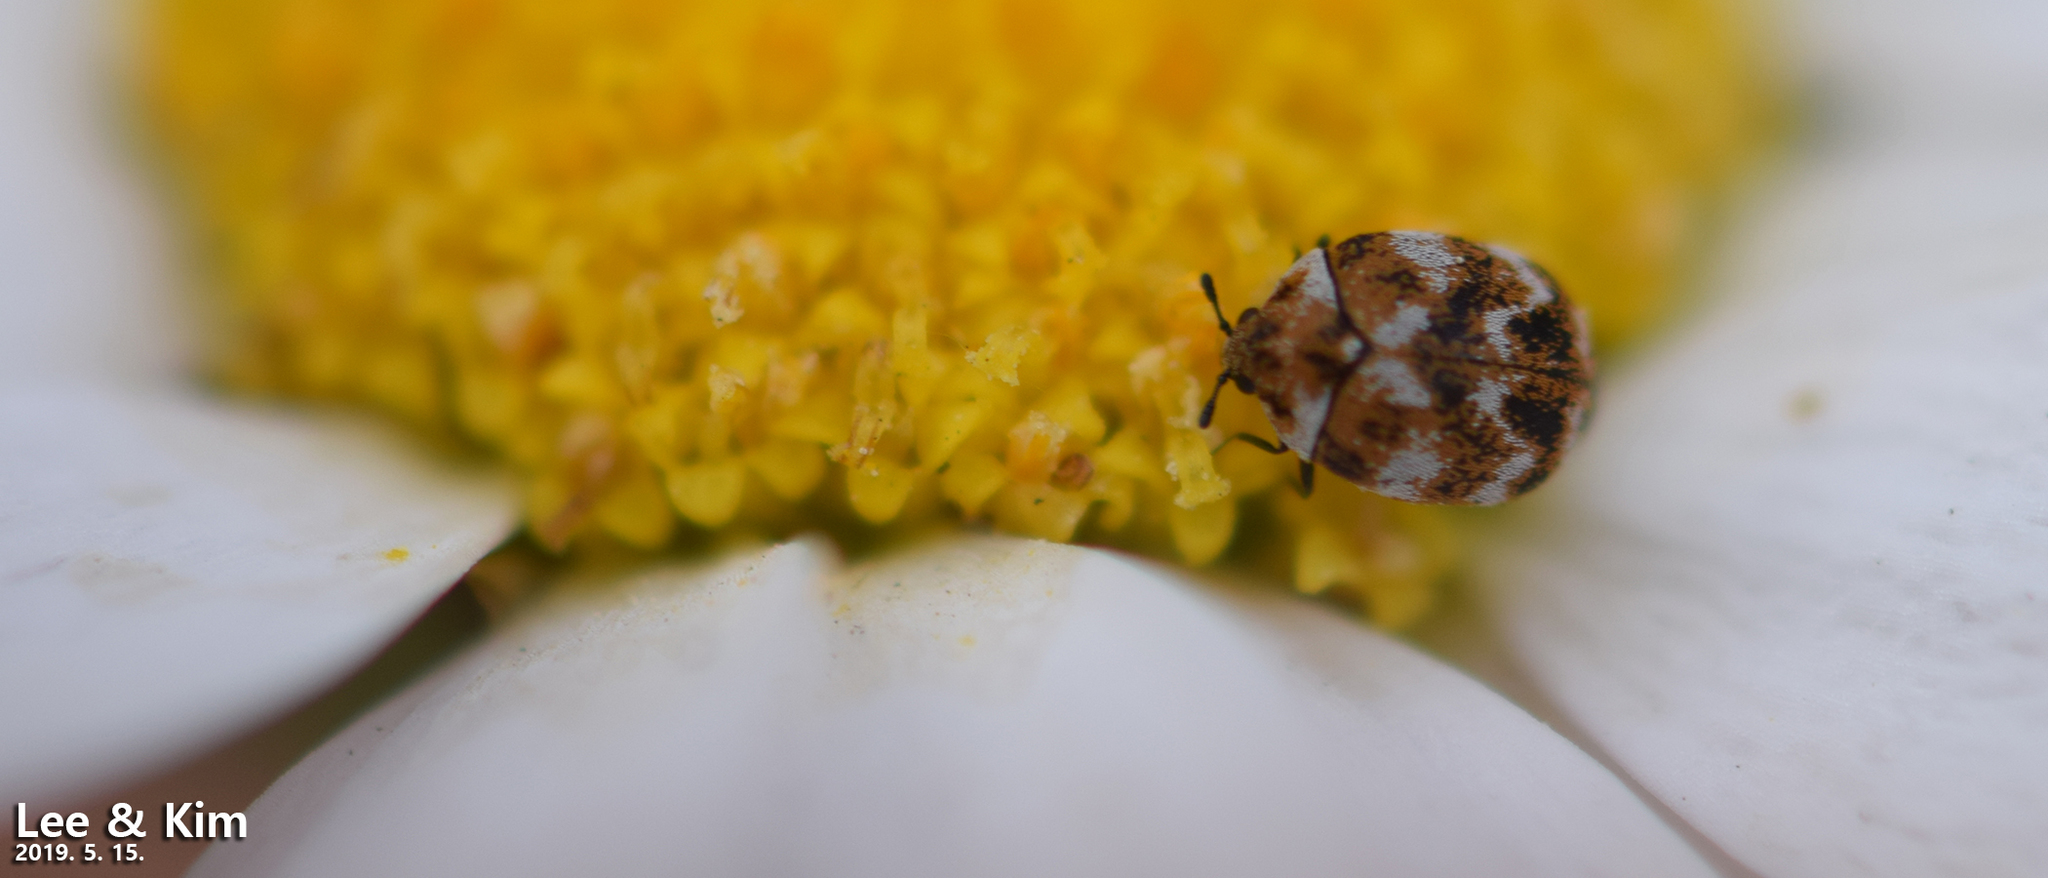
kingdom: Animalia
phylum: Arthropoda
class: Insecta
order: Coleoptera
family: Dermestidae
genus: Anthrenus
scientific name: Anthrenus verbasci
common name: Varied carpet beetle
